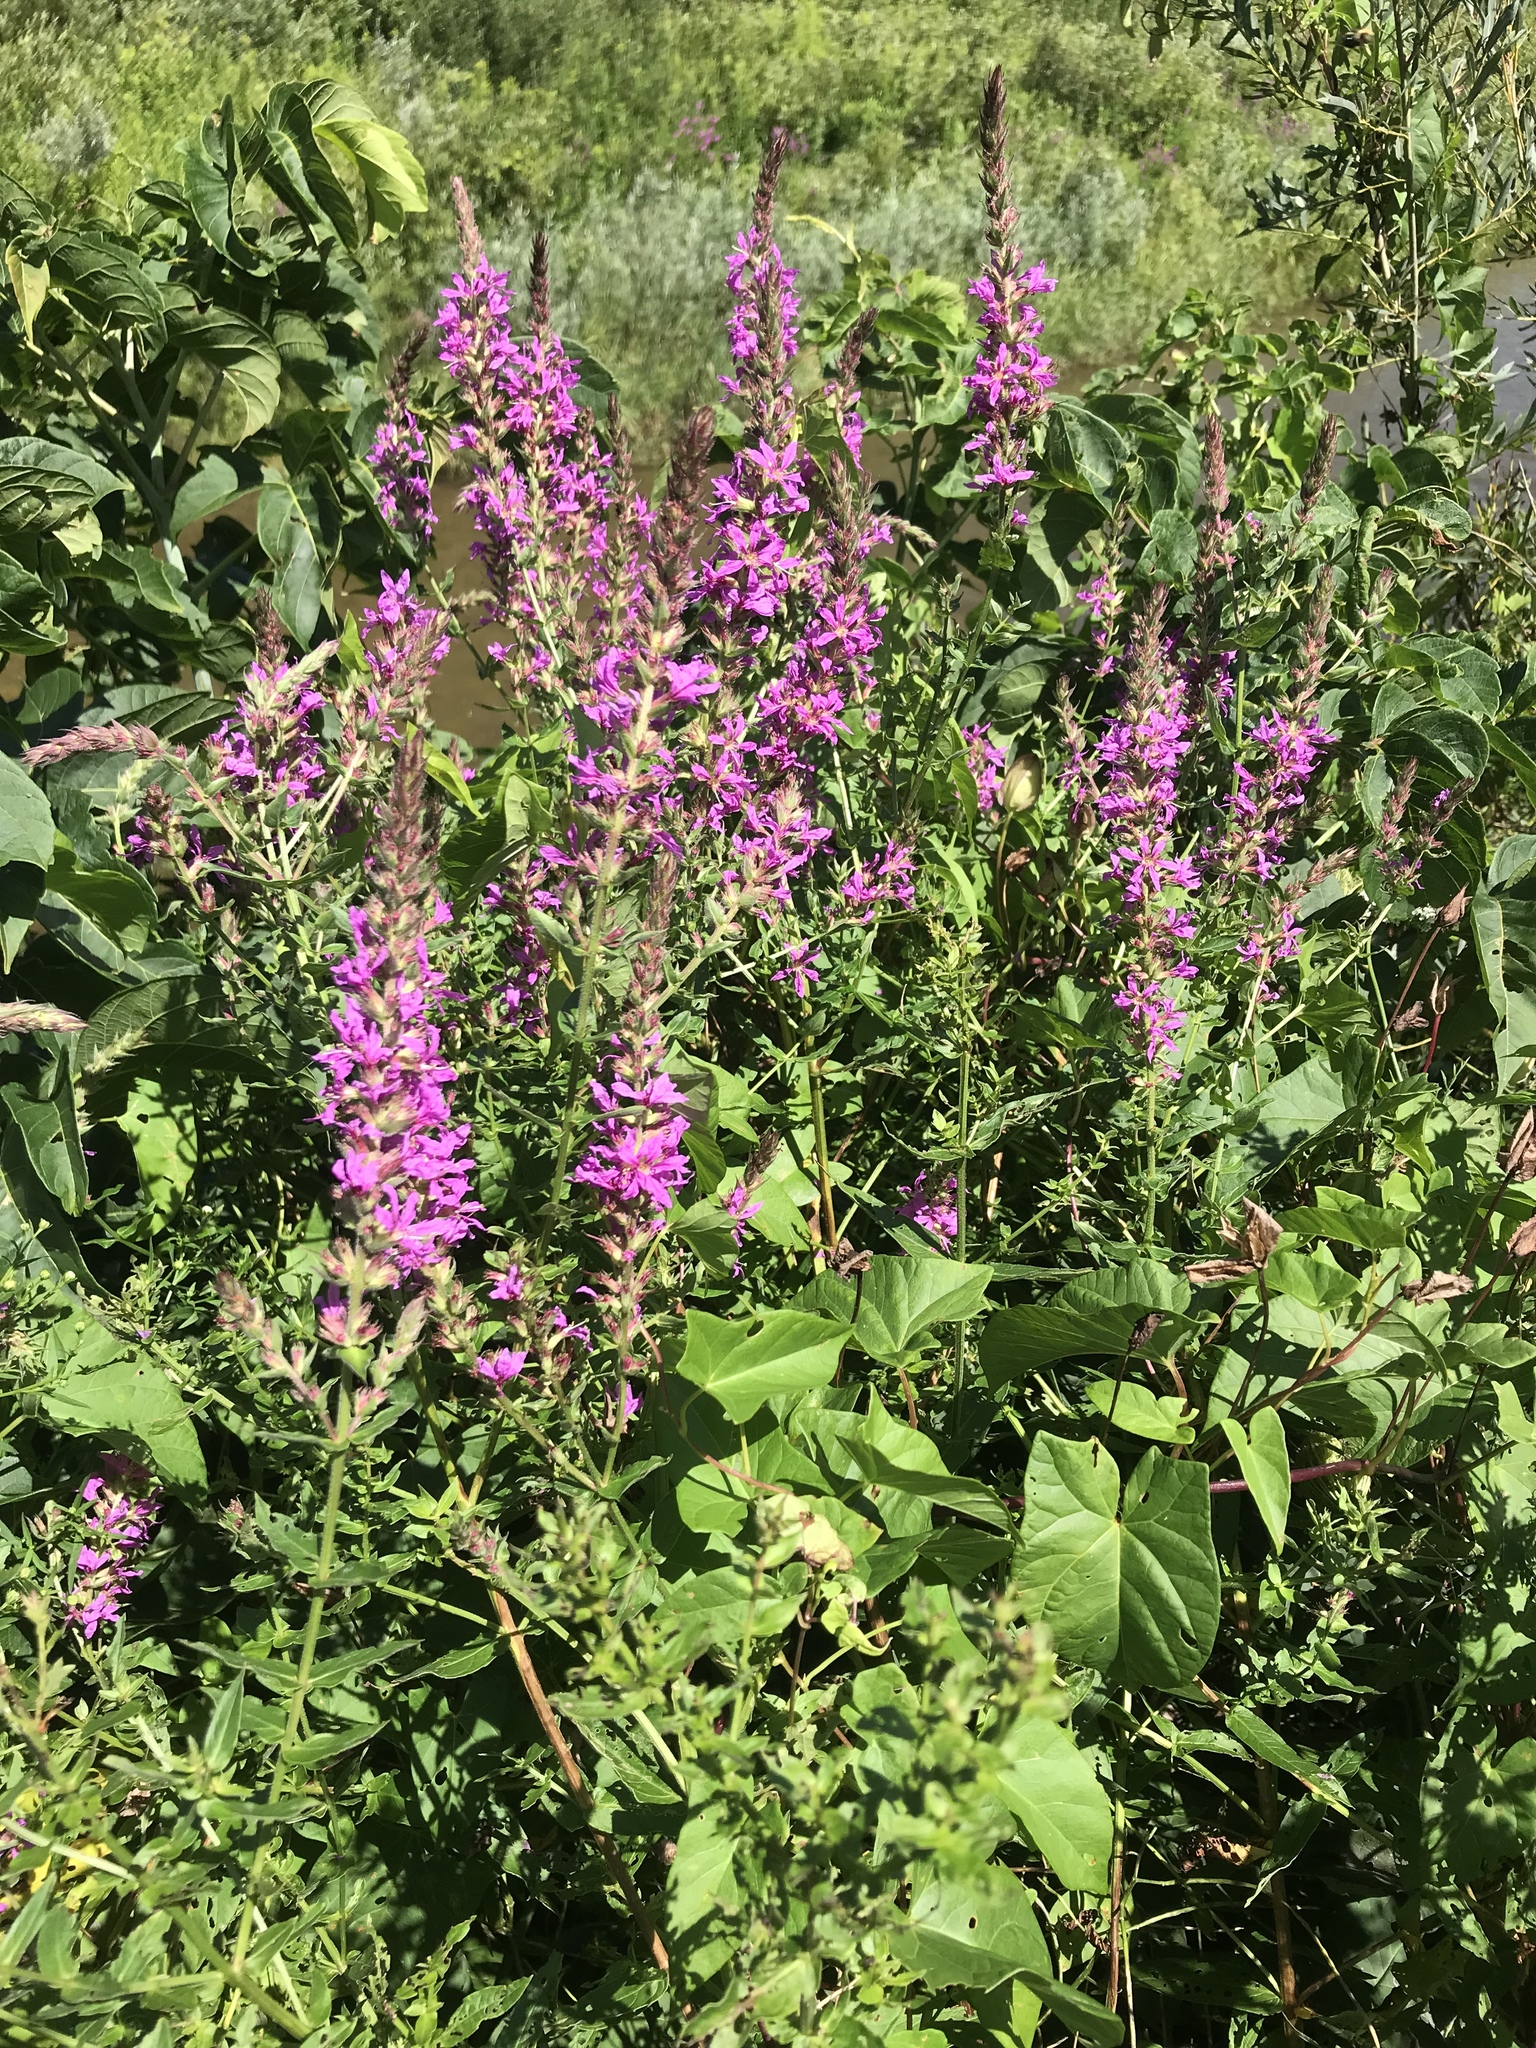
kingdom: Plantae
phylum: Tracheophyta
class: Magnoliopsida
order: Myrtales
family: Lythraceae
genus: Lythrum
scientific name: Lythrum salicaria
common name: Purple loosestrife
